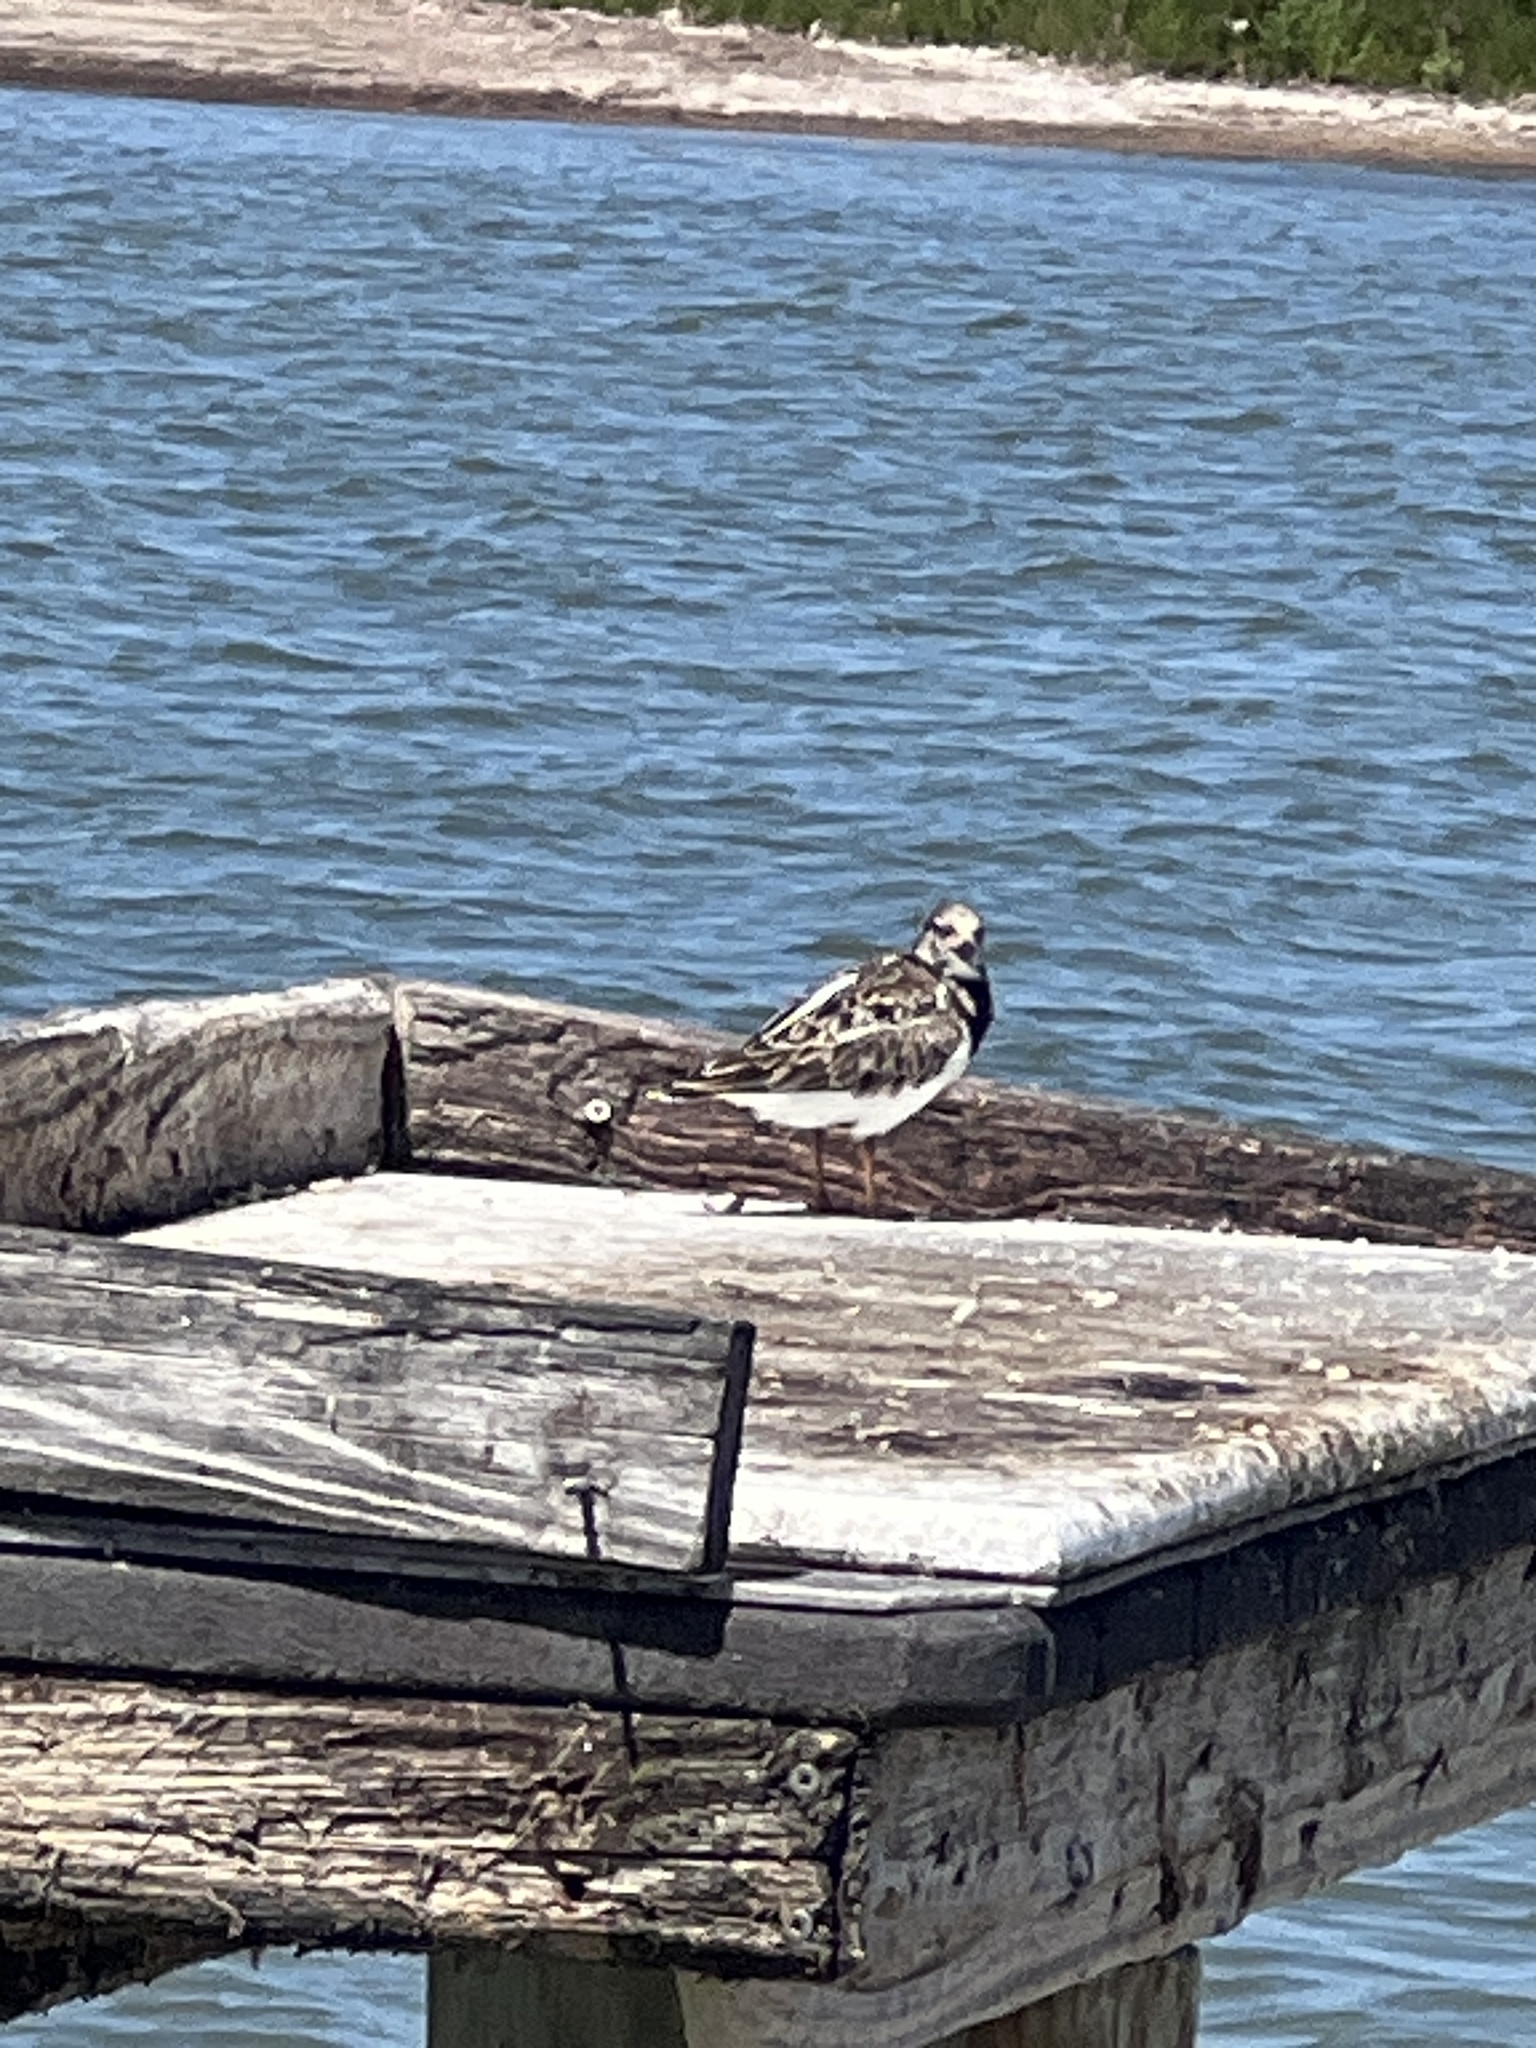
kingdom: Animalia
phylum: Chordata
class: Aves
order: Charadriiformes
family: Scolopacidae
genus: Arenaria
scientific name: Arenaria interpres
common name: Ruddy turnstone
